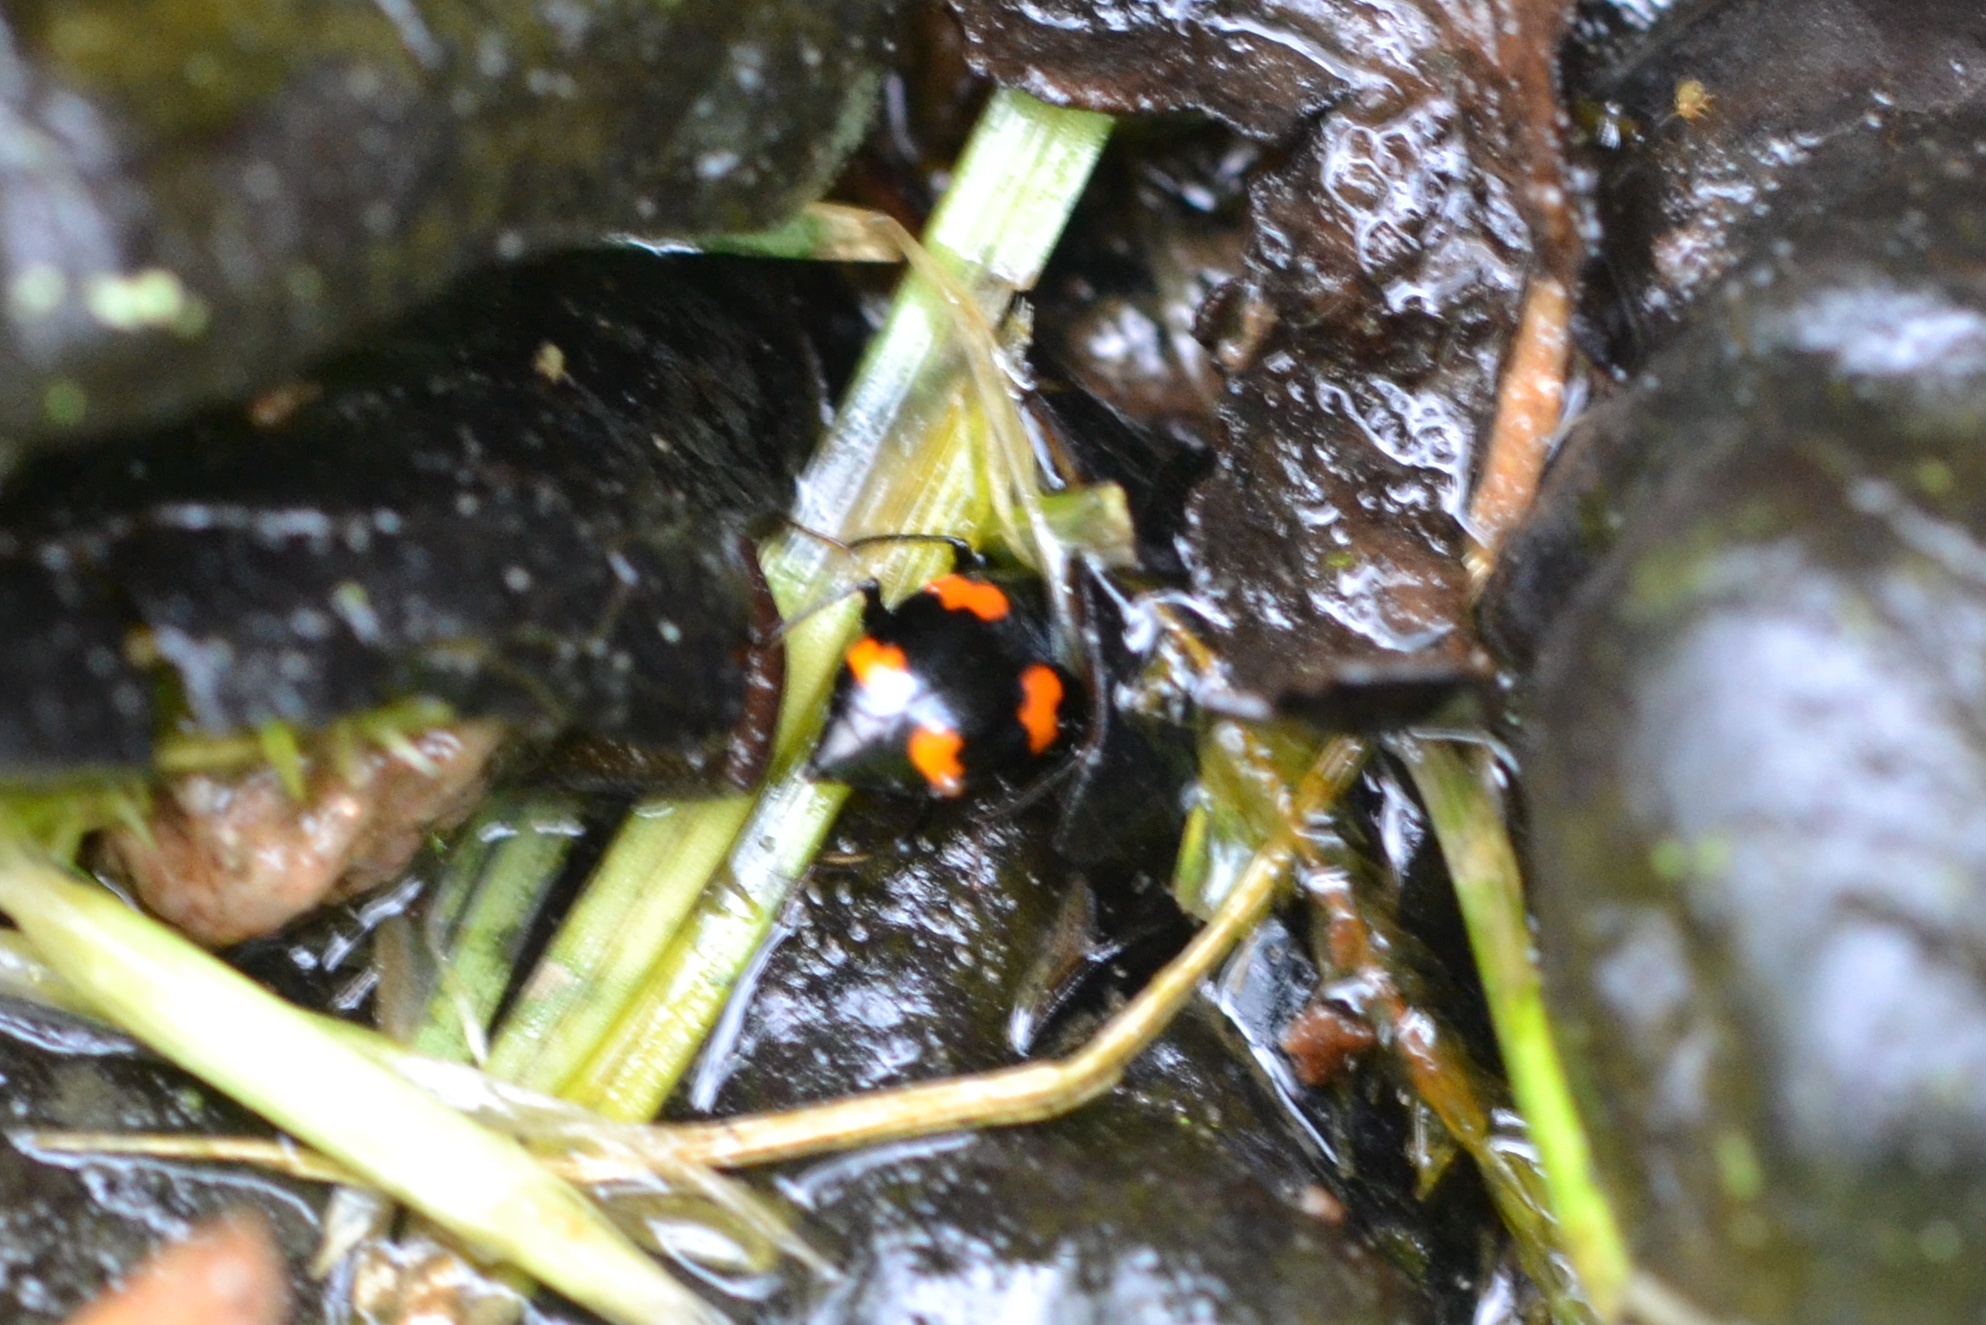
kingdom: Animalia
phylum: Arthropoda
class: Insecta
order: Coleoptera
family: Staphylinidae
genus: Scaphidium
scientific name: Scaphidium quadrimaculatum
